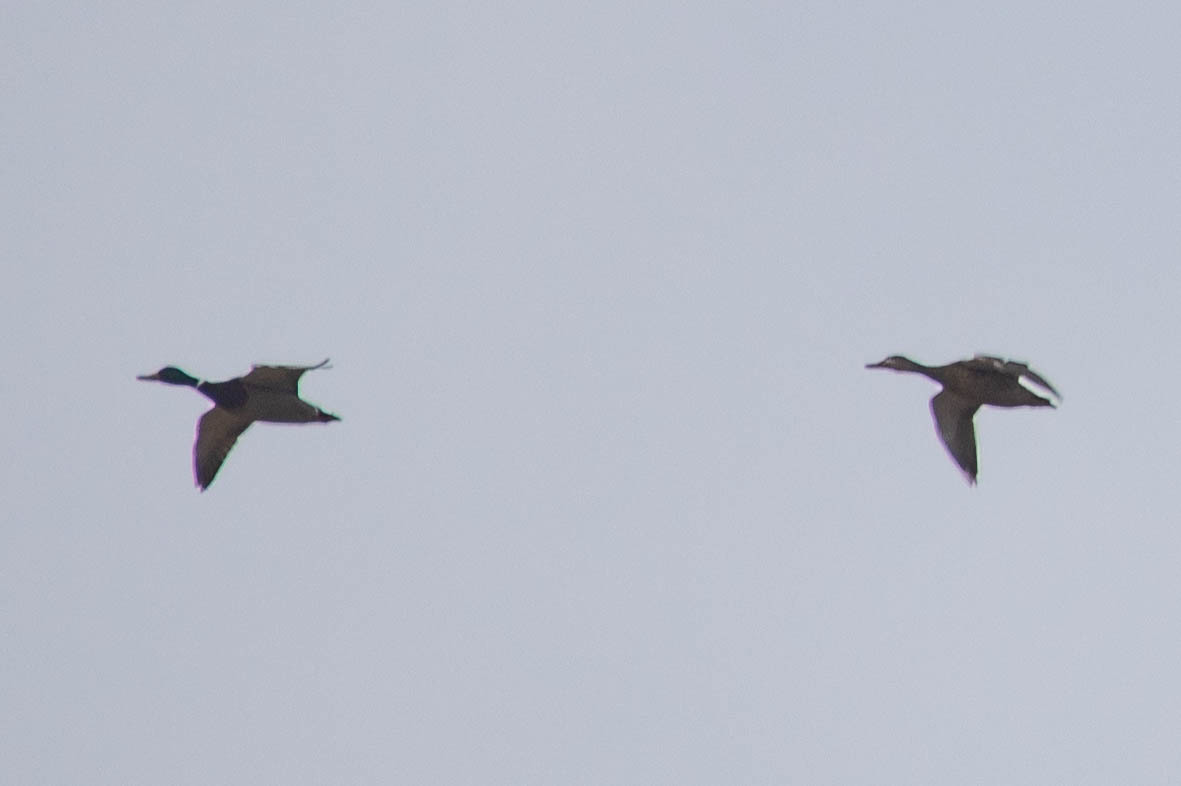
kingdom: Animalia
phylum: Chordata
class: Aves
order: Anseriformes
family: Anatidae
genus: Anas
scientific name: Anas platyrhynchos
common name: Mallard
